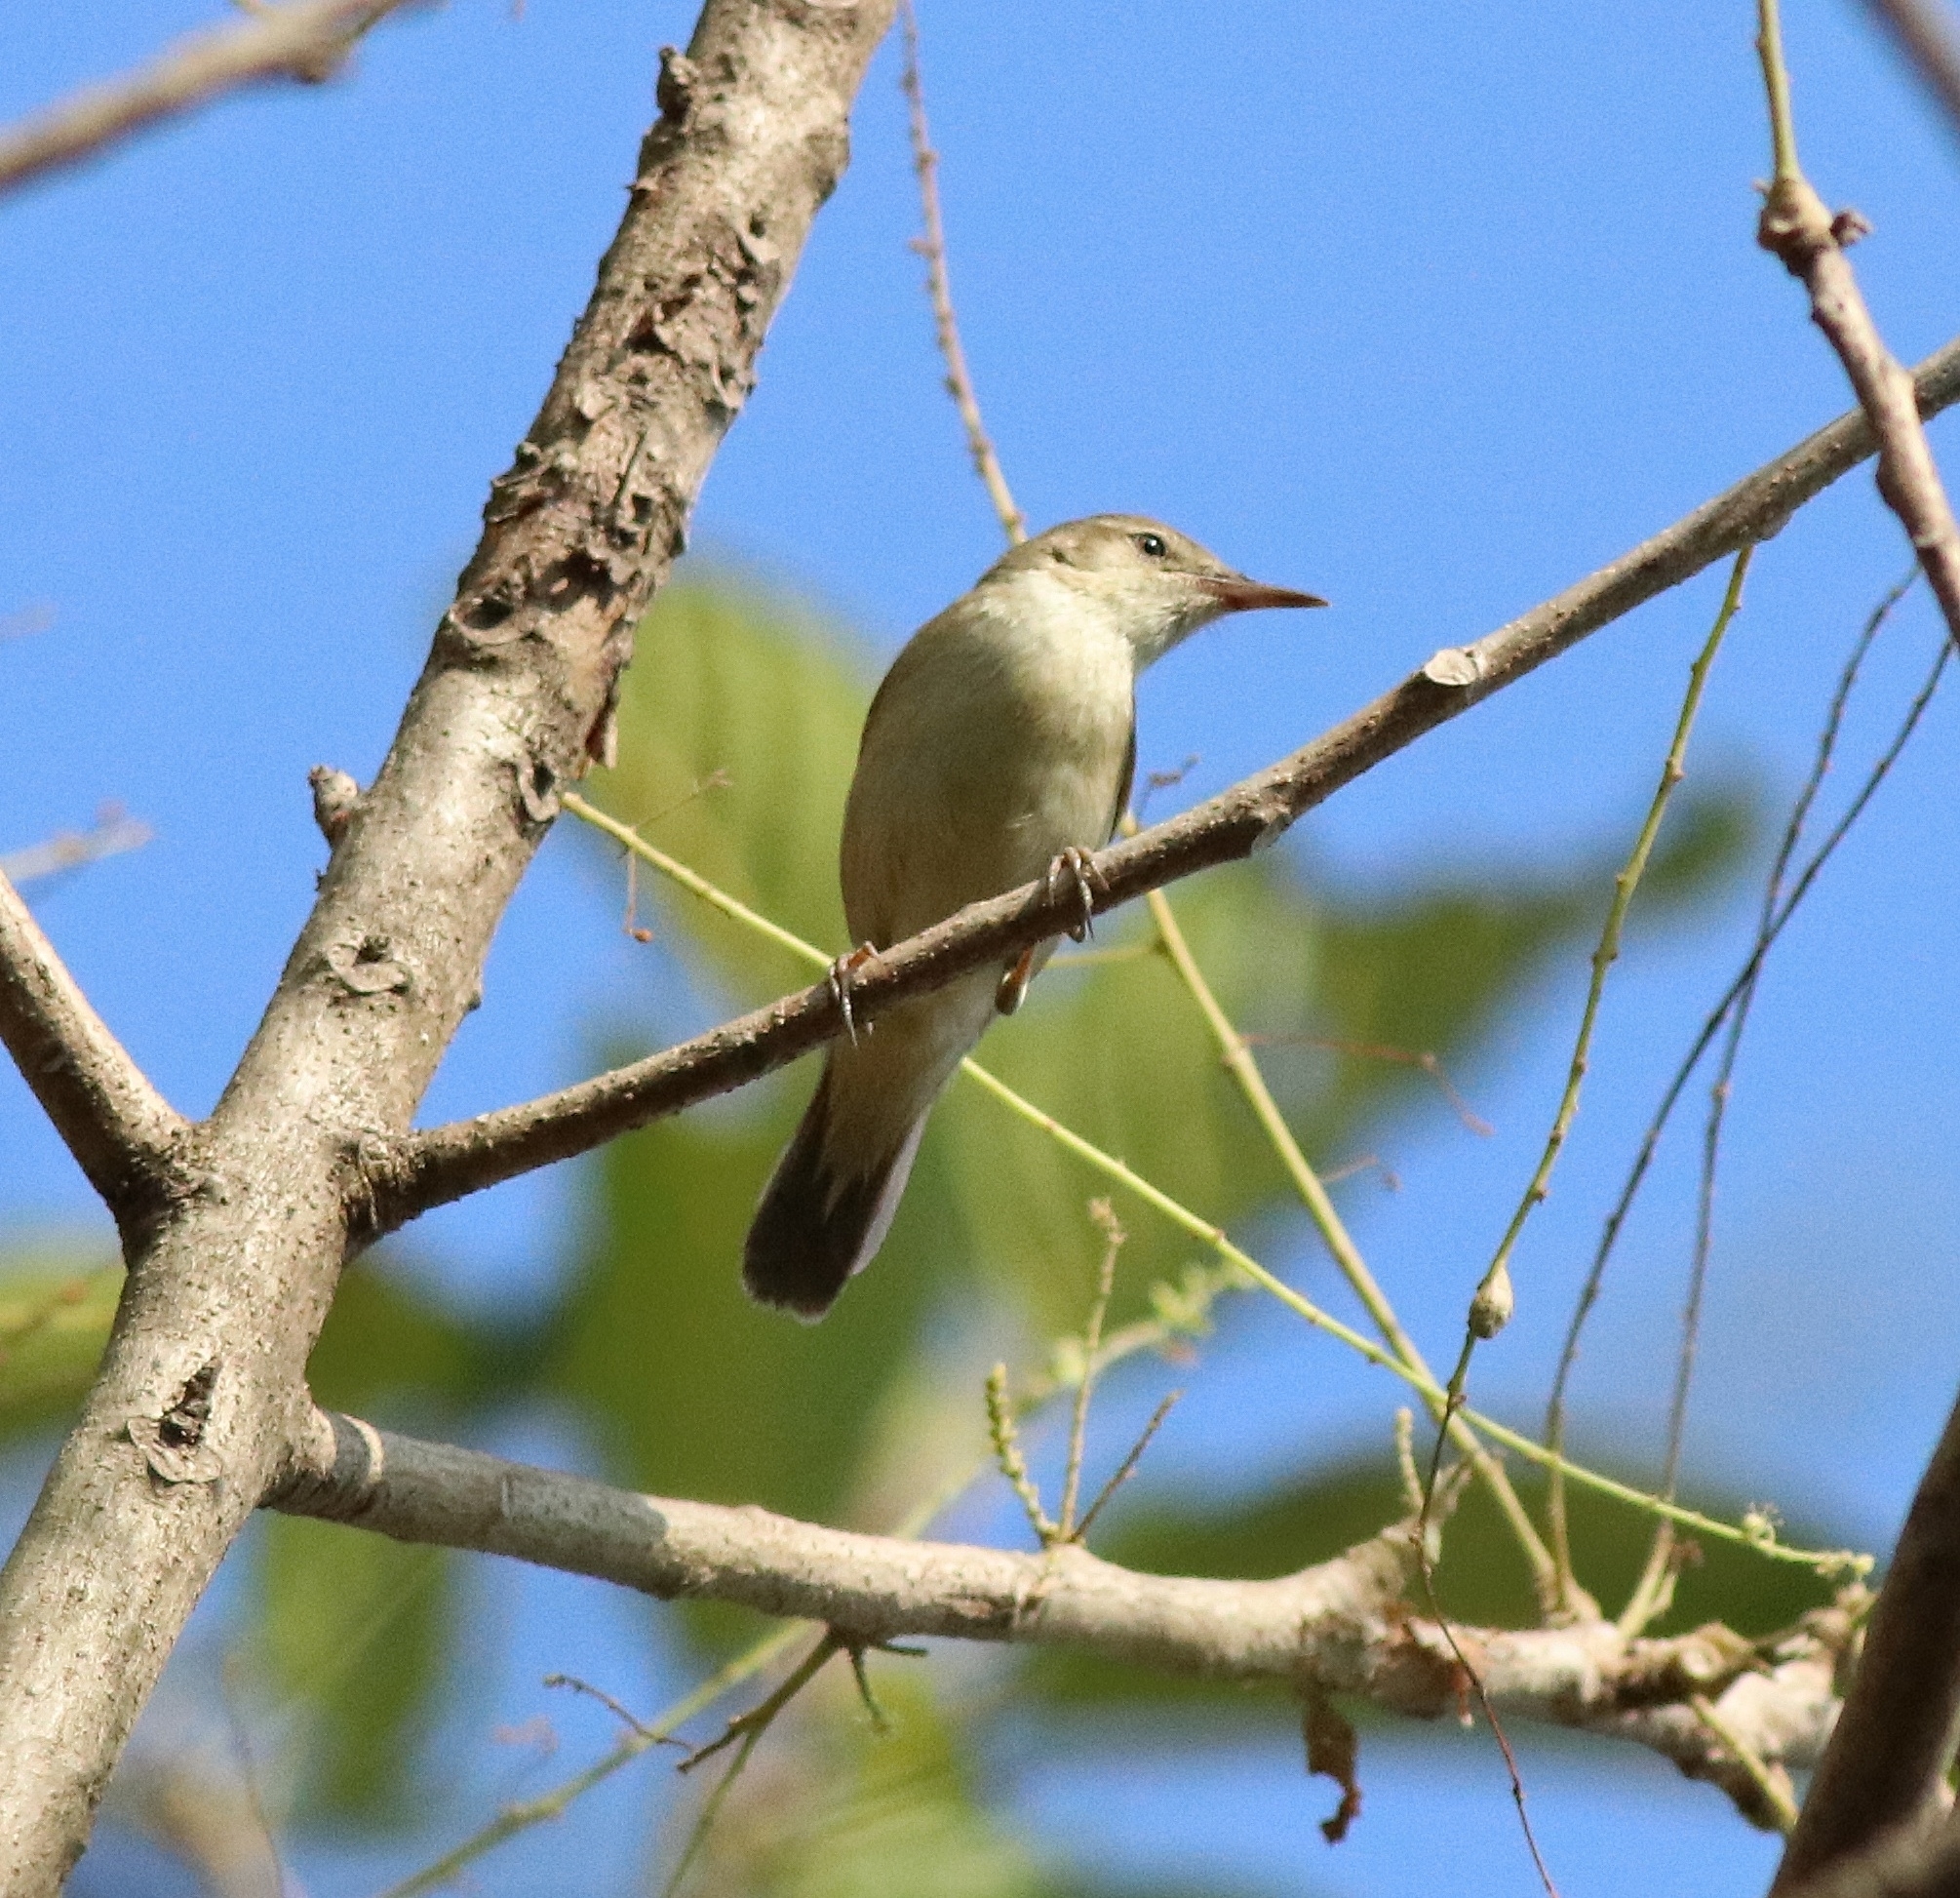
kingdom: Animalia
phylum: Chordata
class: Aves
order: Passeriformes
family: Acrocephalidae
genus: Acrocephalus
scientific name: Acrocephalus dumetorum
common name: Blyth's reed warbler
